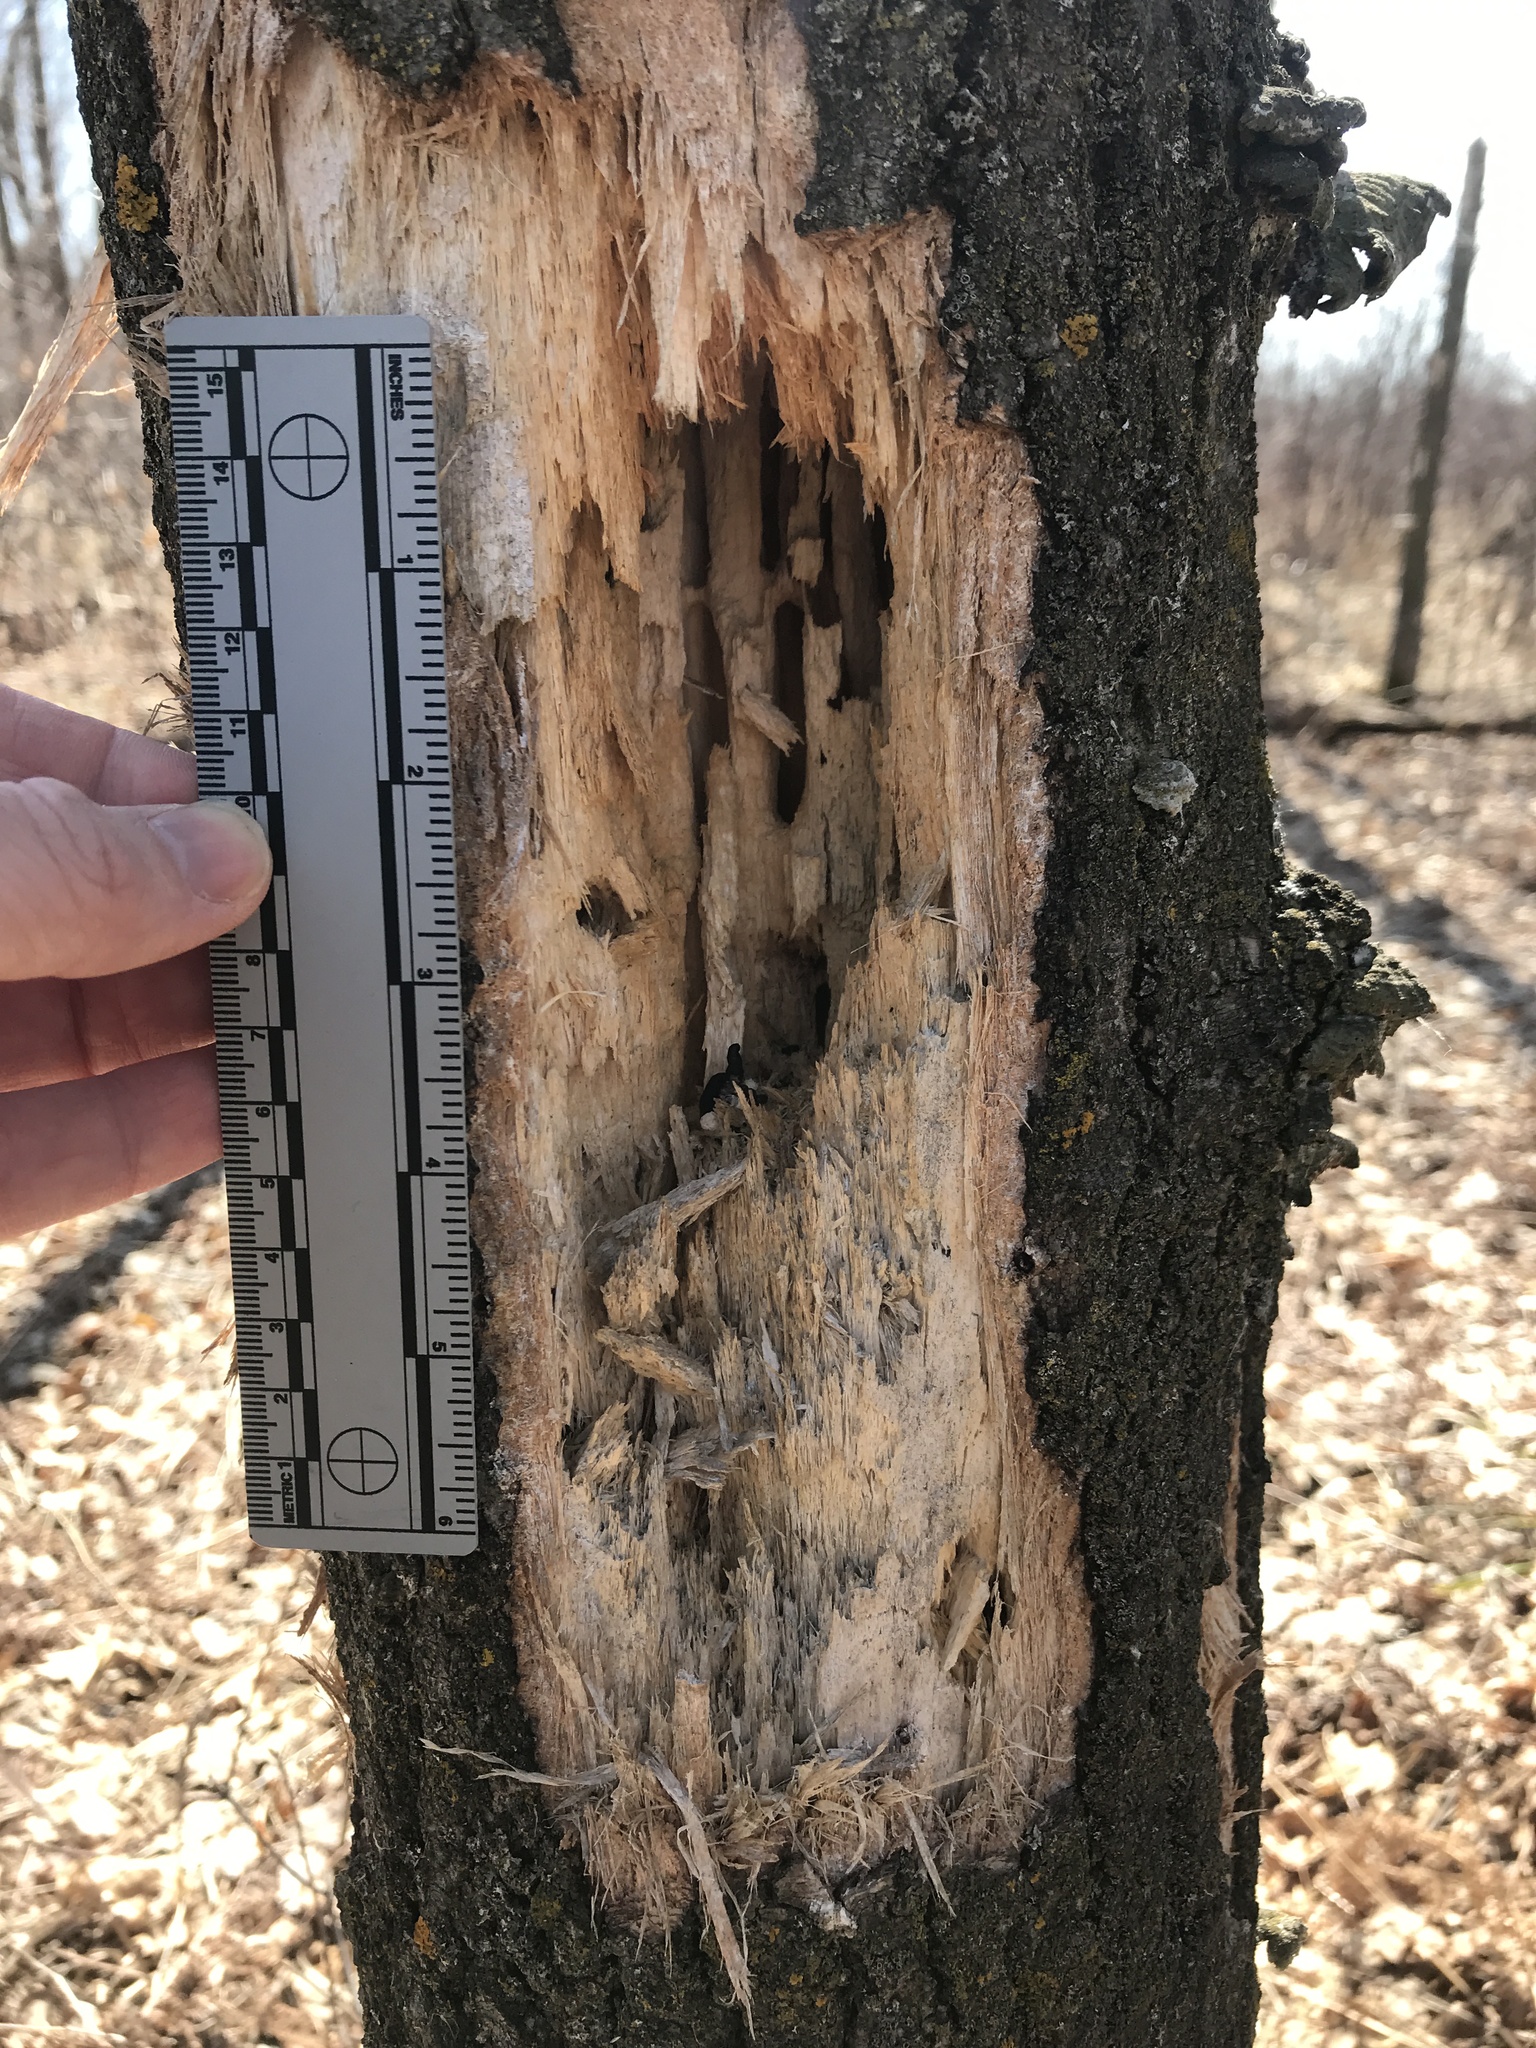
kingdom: Animalia
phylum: Chordata
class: Aves
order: Piciformes
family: Picidae
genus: Dryocopus
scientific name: Dryocopus pileatus
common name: Pileated woodpecker
